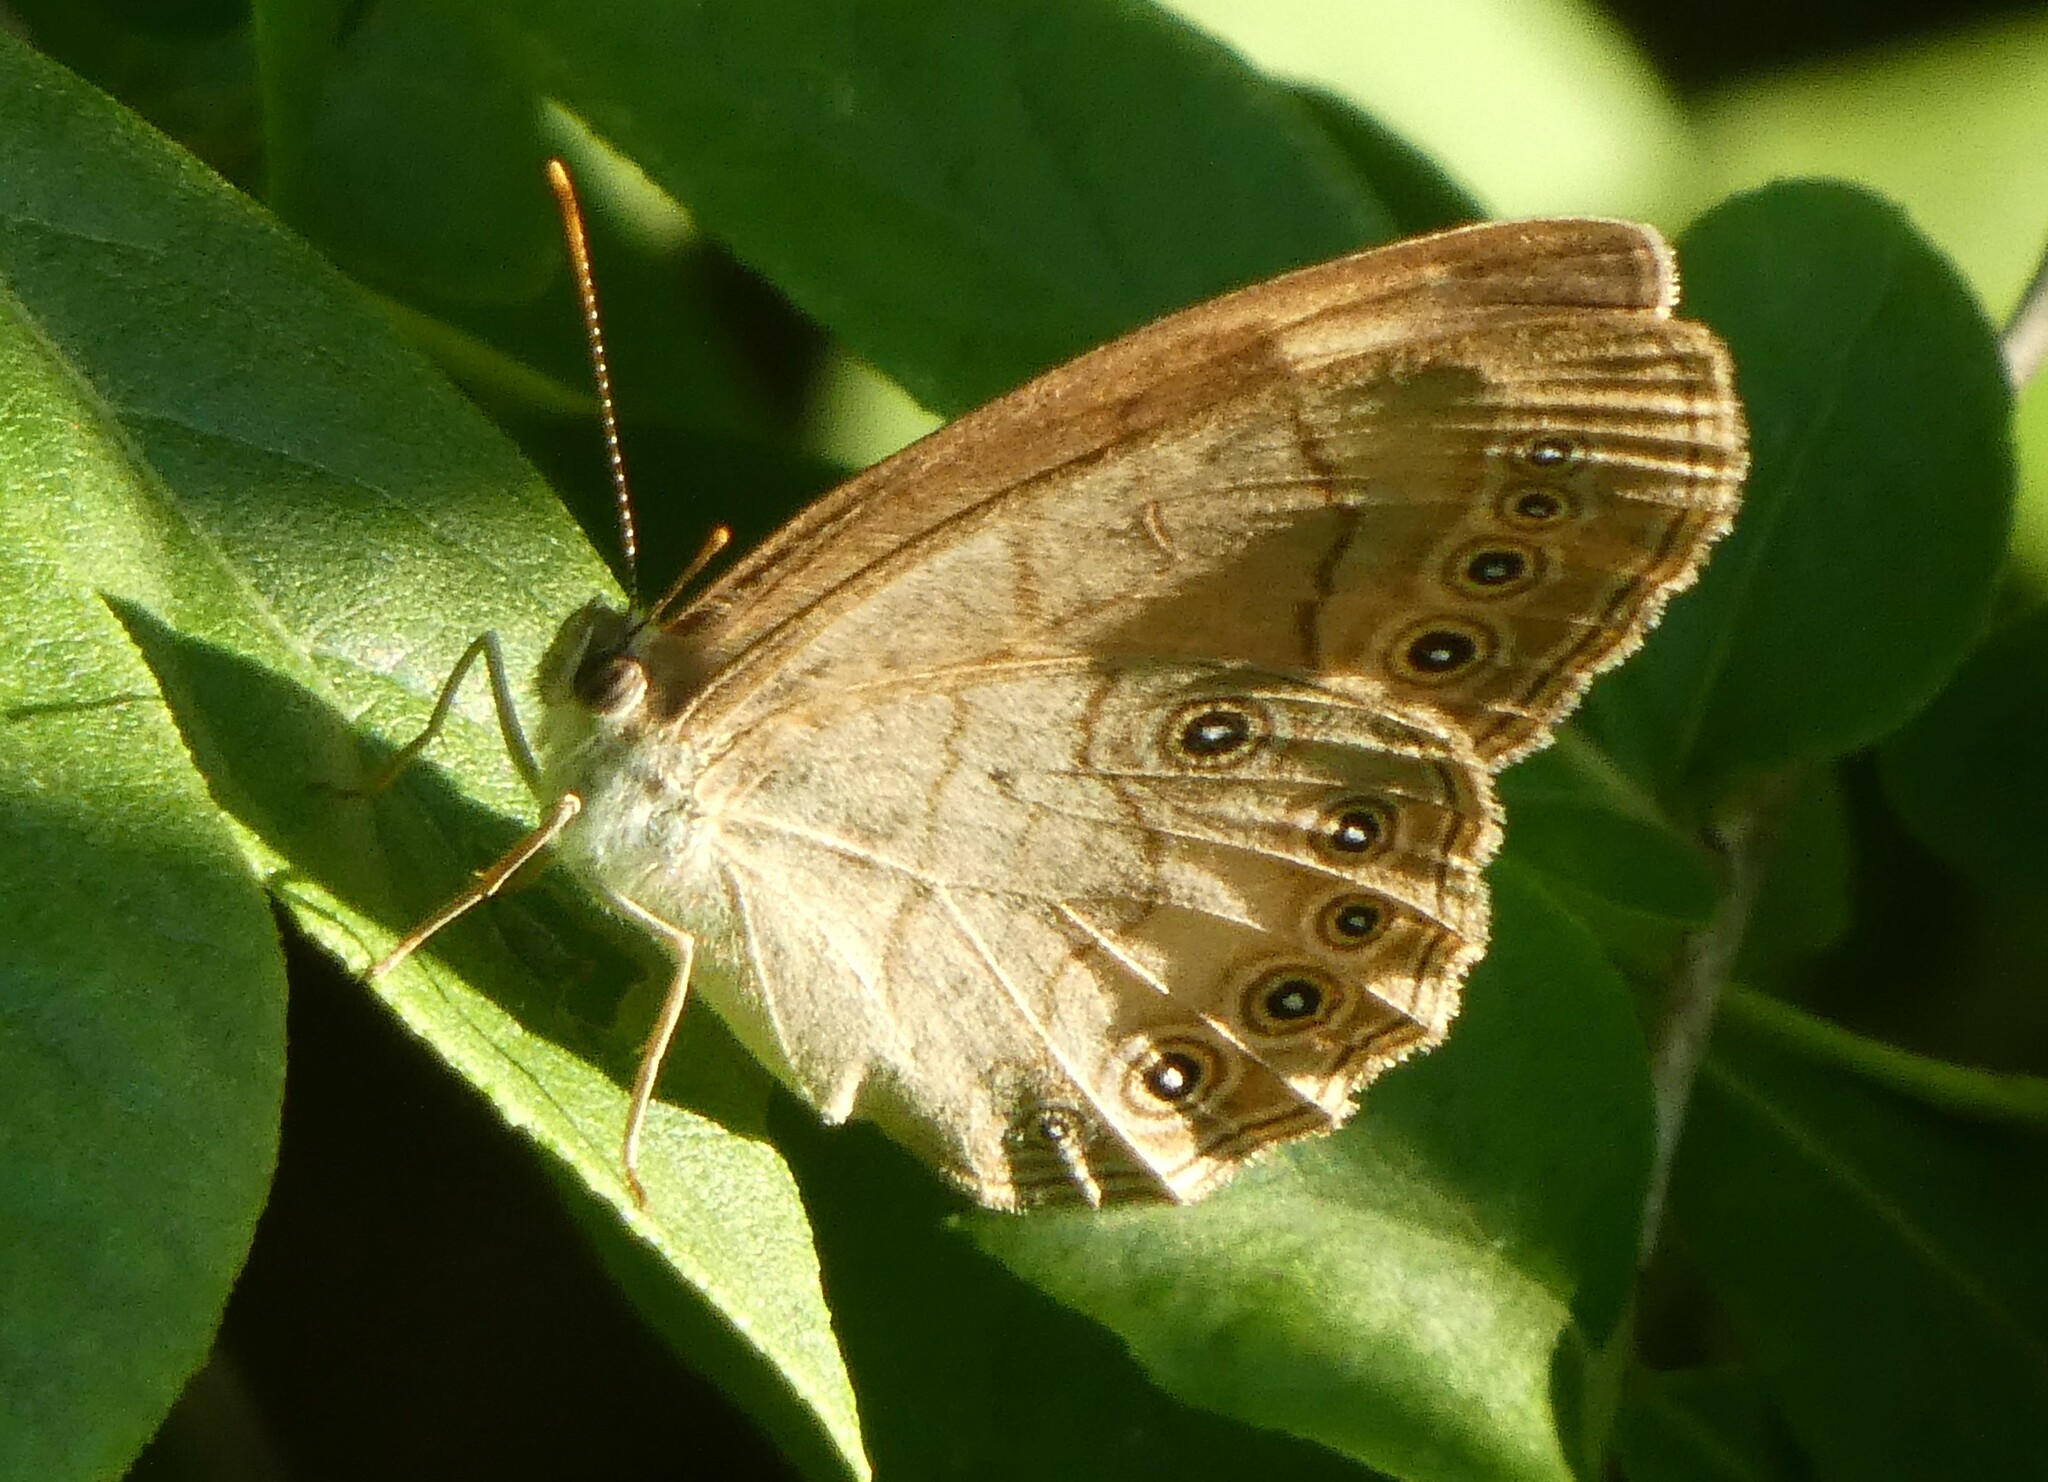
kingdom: Animalia
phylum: Arthropoda
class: Insecta
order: Lepidoptera
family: Nymphalidae
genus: Lethe
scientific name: Lethe eurydice
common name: Eyed brown
